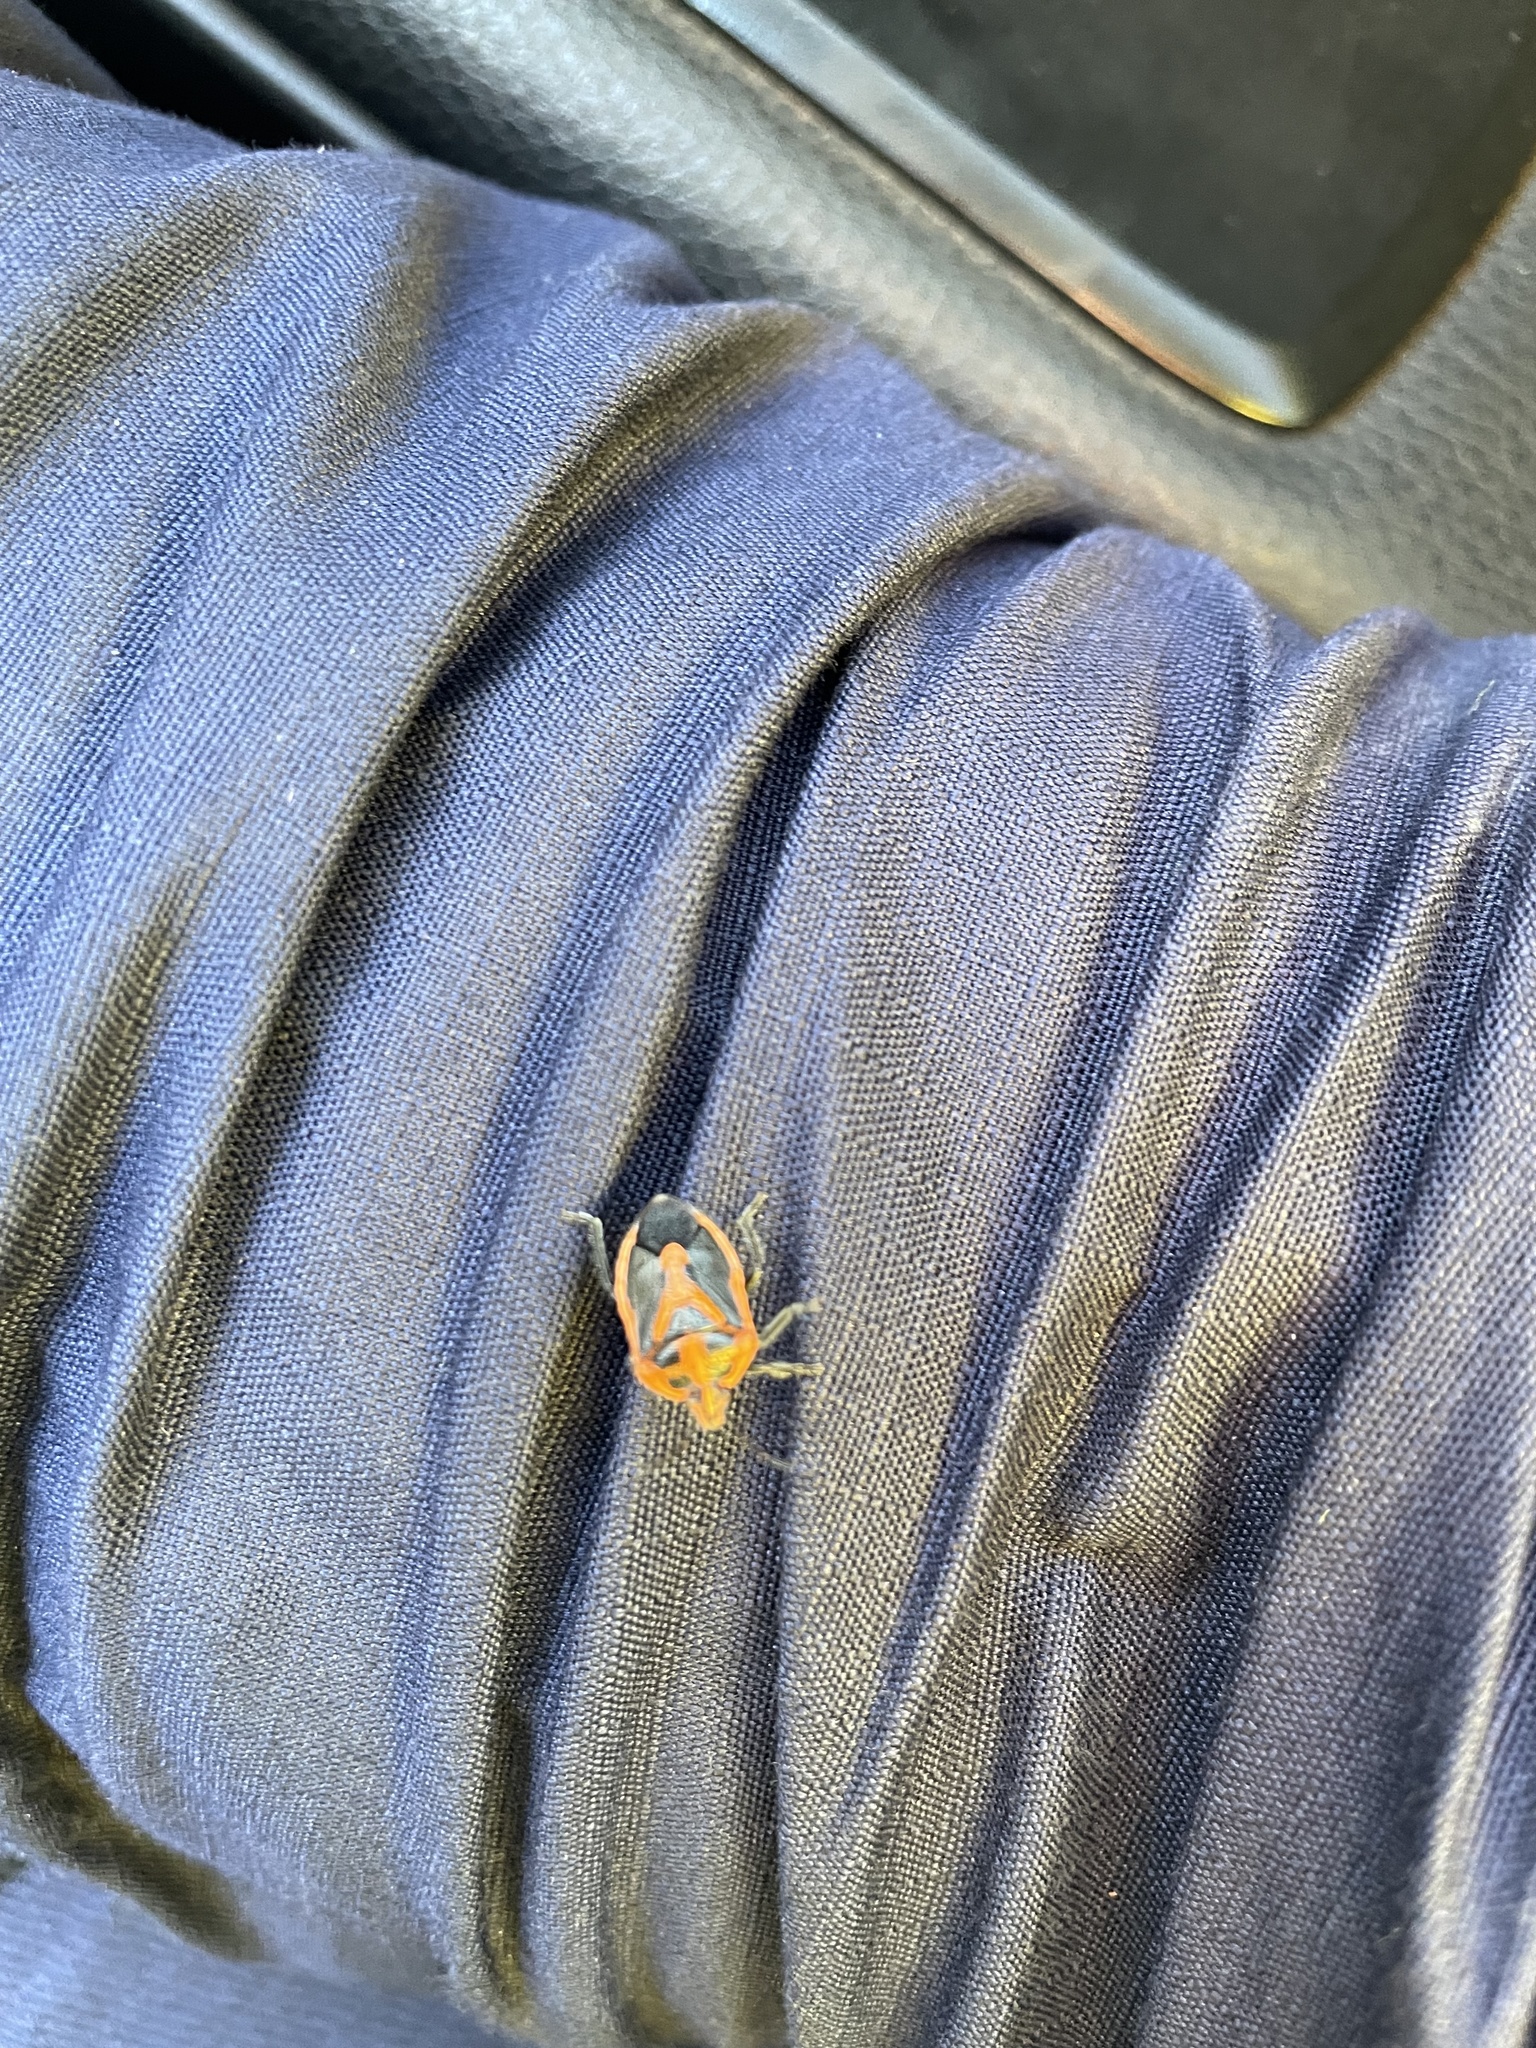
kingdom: Animalia
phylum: Arthropoda
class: Insecta
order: Hemiptera
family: Pentatomidae
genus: Agonoscelis
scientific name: Agonoscelis rutila
